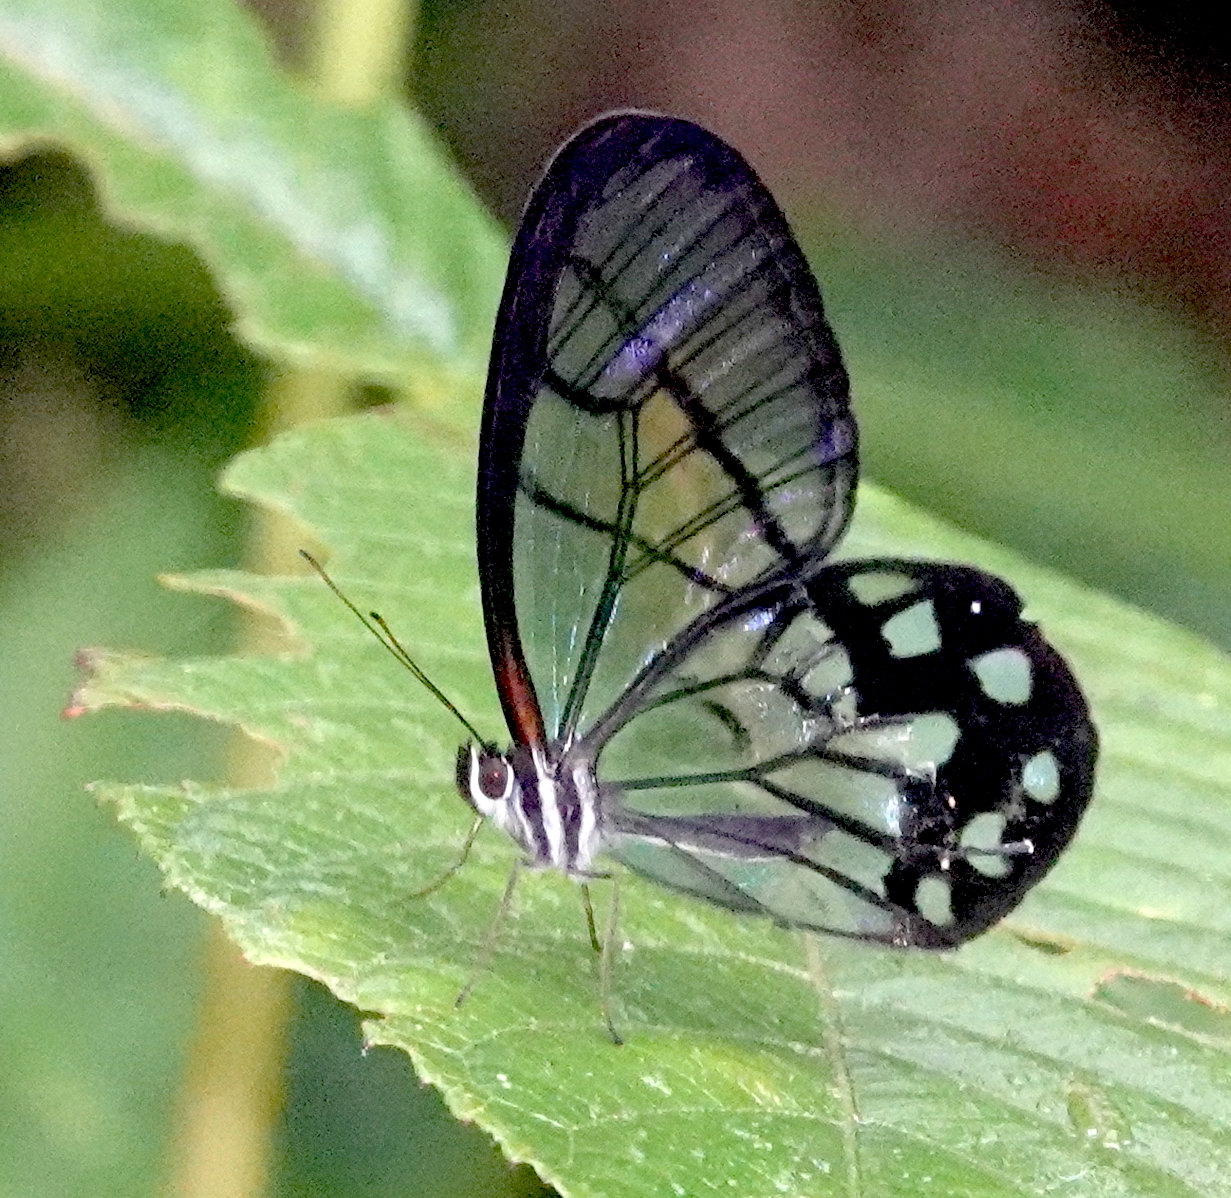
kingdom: Animalia
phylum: Arthropoda
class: Insecta
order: Lepidoptera
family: Nymphalidae
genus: Pseudohaetera
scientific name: Pseudohaetera
